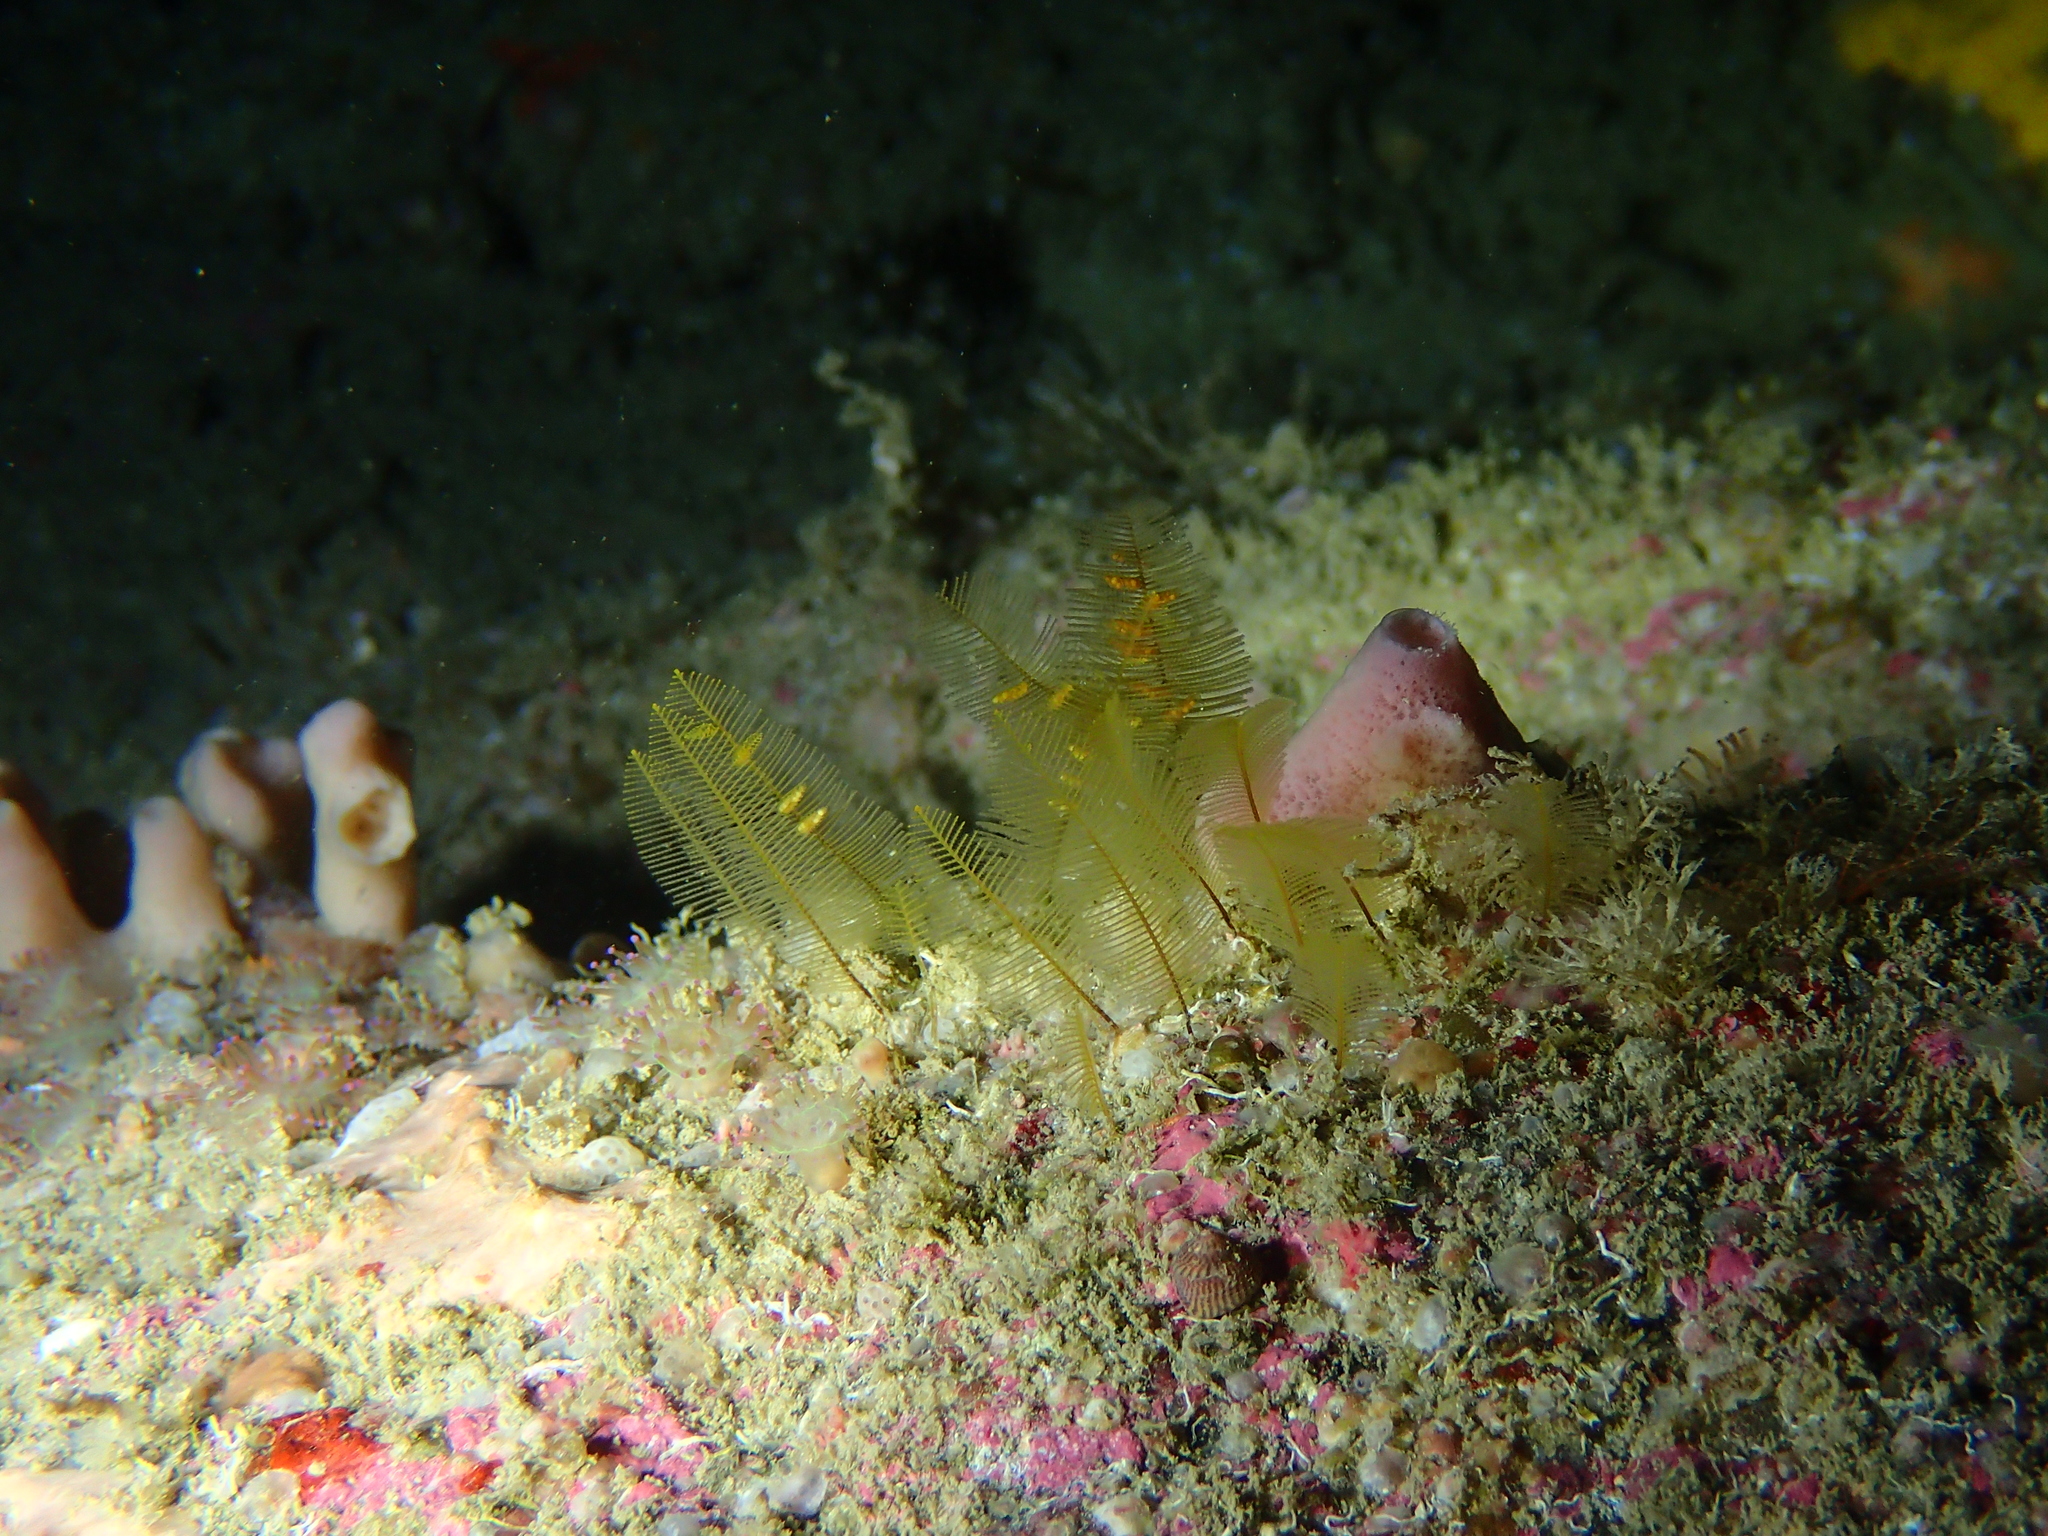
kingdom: Animalia
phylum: Cnidaria
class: Hydrozoa
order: Leptothecata
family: Aglaopheniidae
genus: Aglaophenia
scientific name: Aglaophenia tubulifera
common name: Plume hydroid
